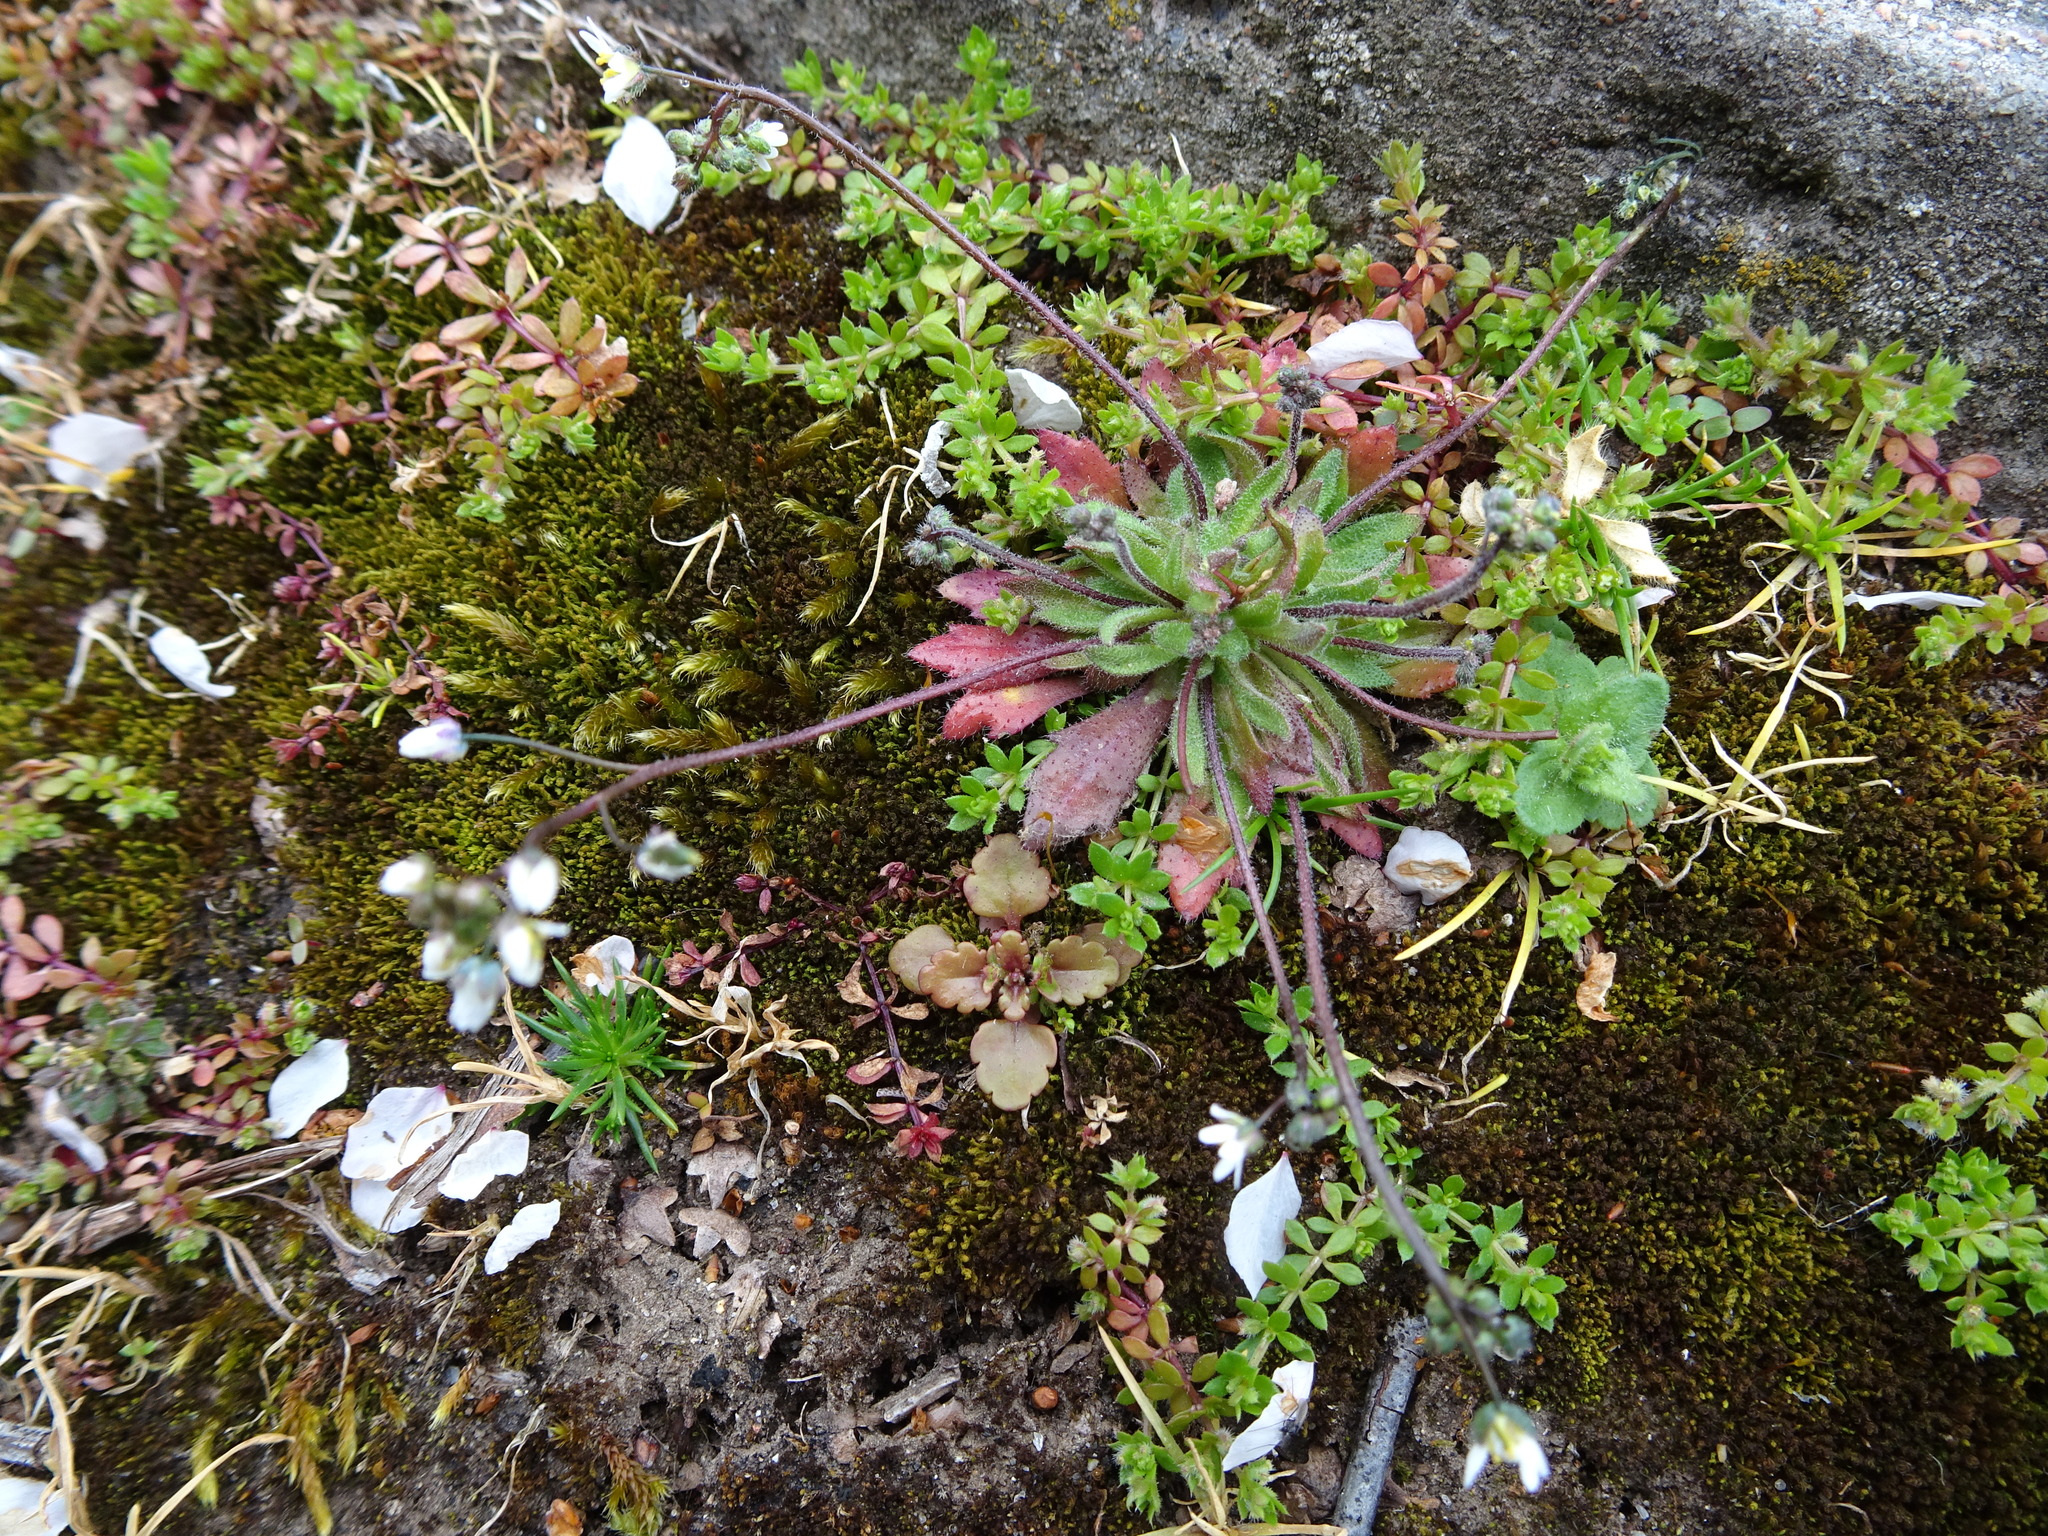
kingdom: Plantae
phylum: Tracheophyta
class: Magnoliopsida
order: Brassicales
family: Brassicaceae
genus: Draba
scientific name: Draba verna
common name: Spring draba
